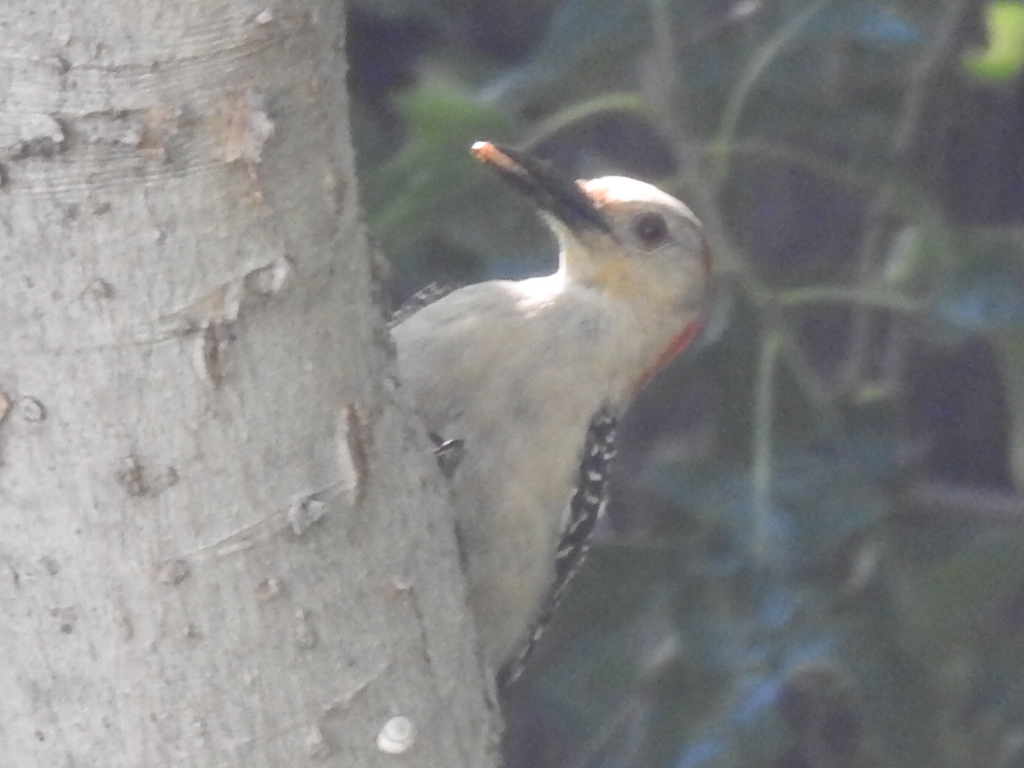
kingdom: Animalia
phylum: Chordata
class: Aves
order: Piciformes
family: Picidae
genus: Melanerpes
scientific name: Melanerpes carolinus
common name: Red-bellied woodpecker
